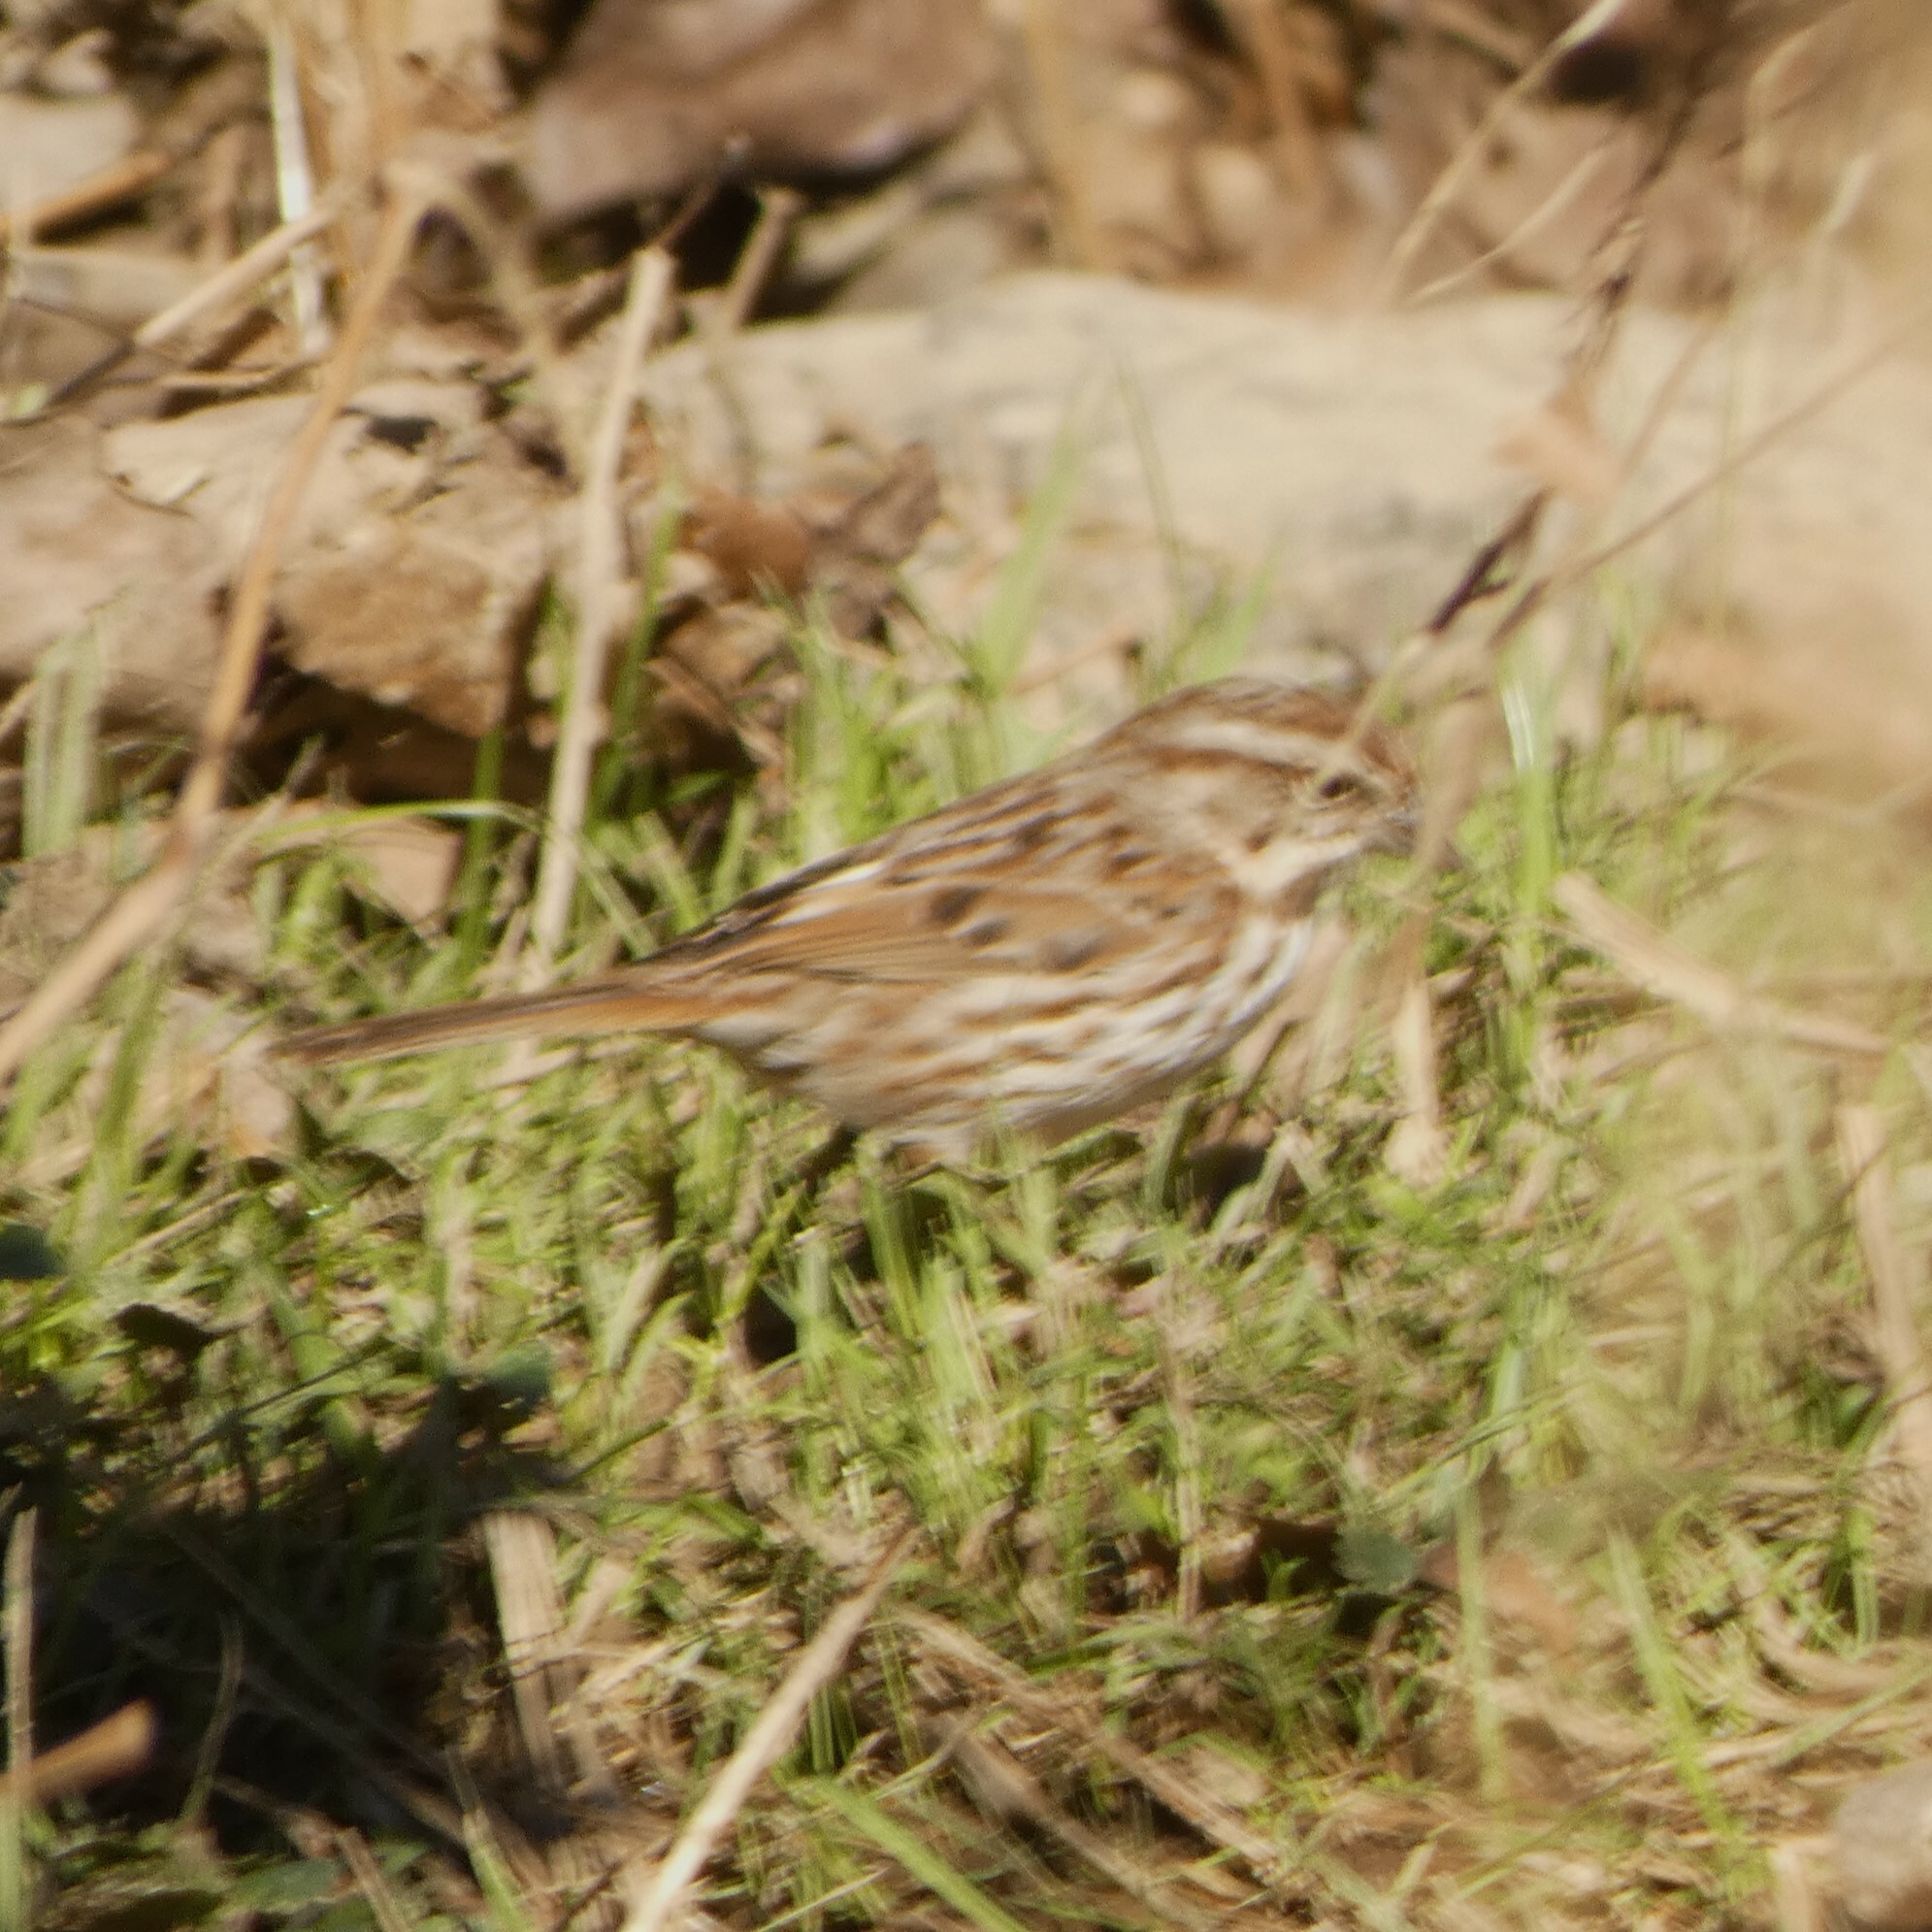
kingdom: Animalia
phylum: Chordata
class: Aves
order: Passeriformes
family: Passerellidae
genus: Melospiza
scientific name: Melospiza melodia
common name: Song sparrow
